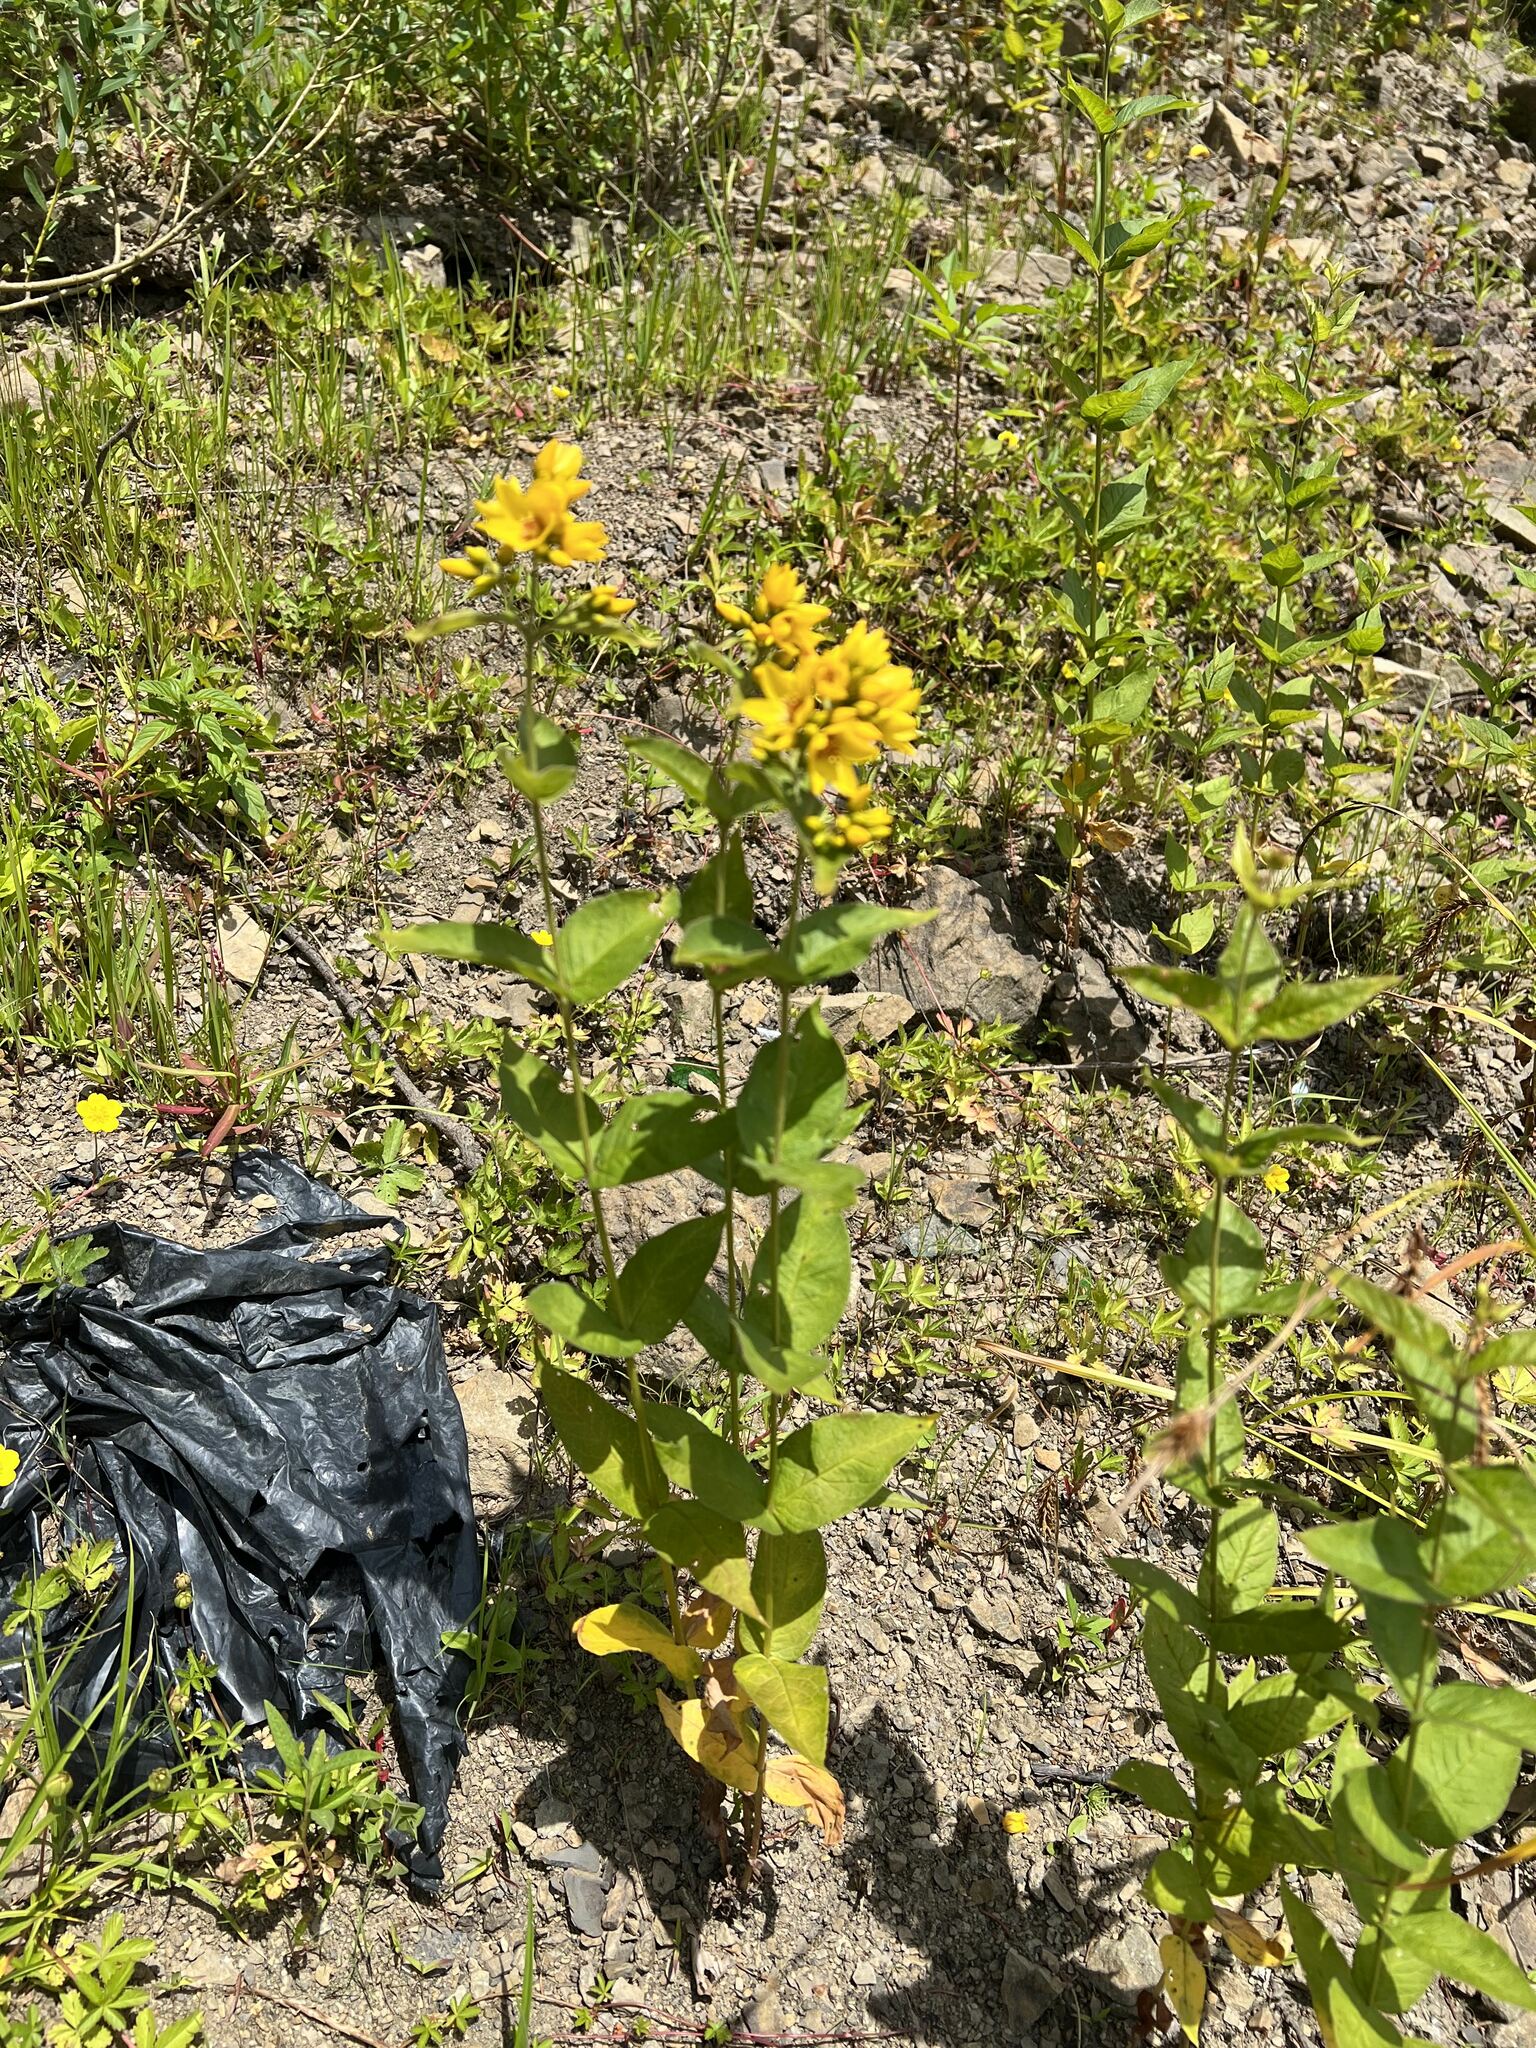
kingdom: Plantae
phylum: Tracheophyta
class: Magnoliopsida
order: Ericales
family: Primulaceae
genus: Lysimachia
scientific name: Lysimachia vulgaris
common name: Yellow loosestrife
